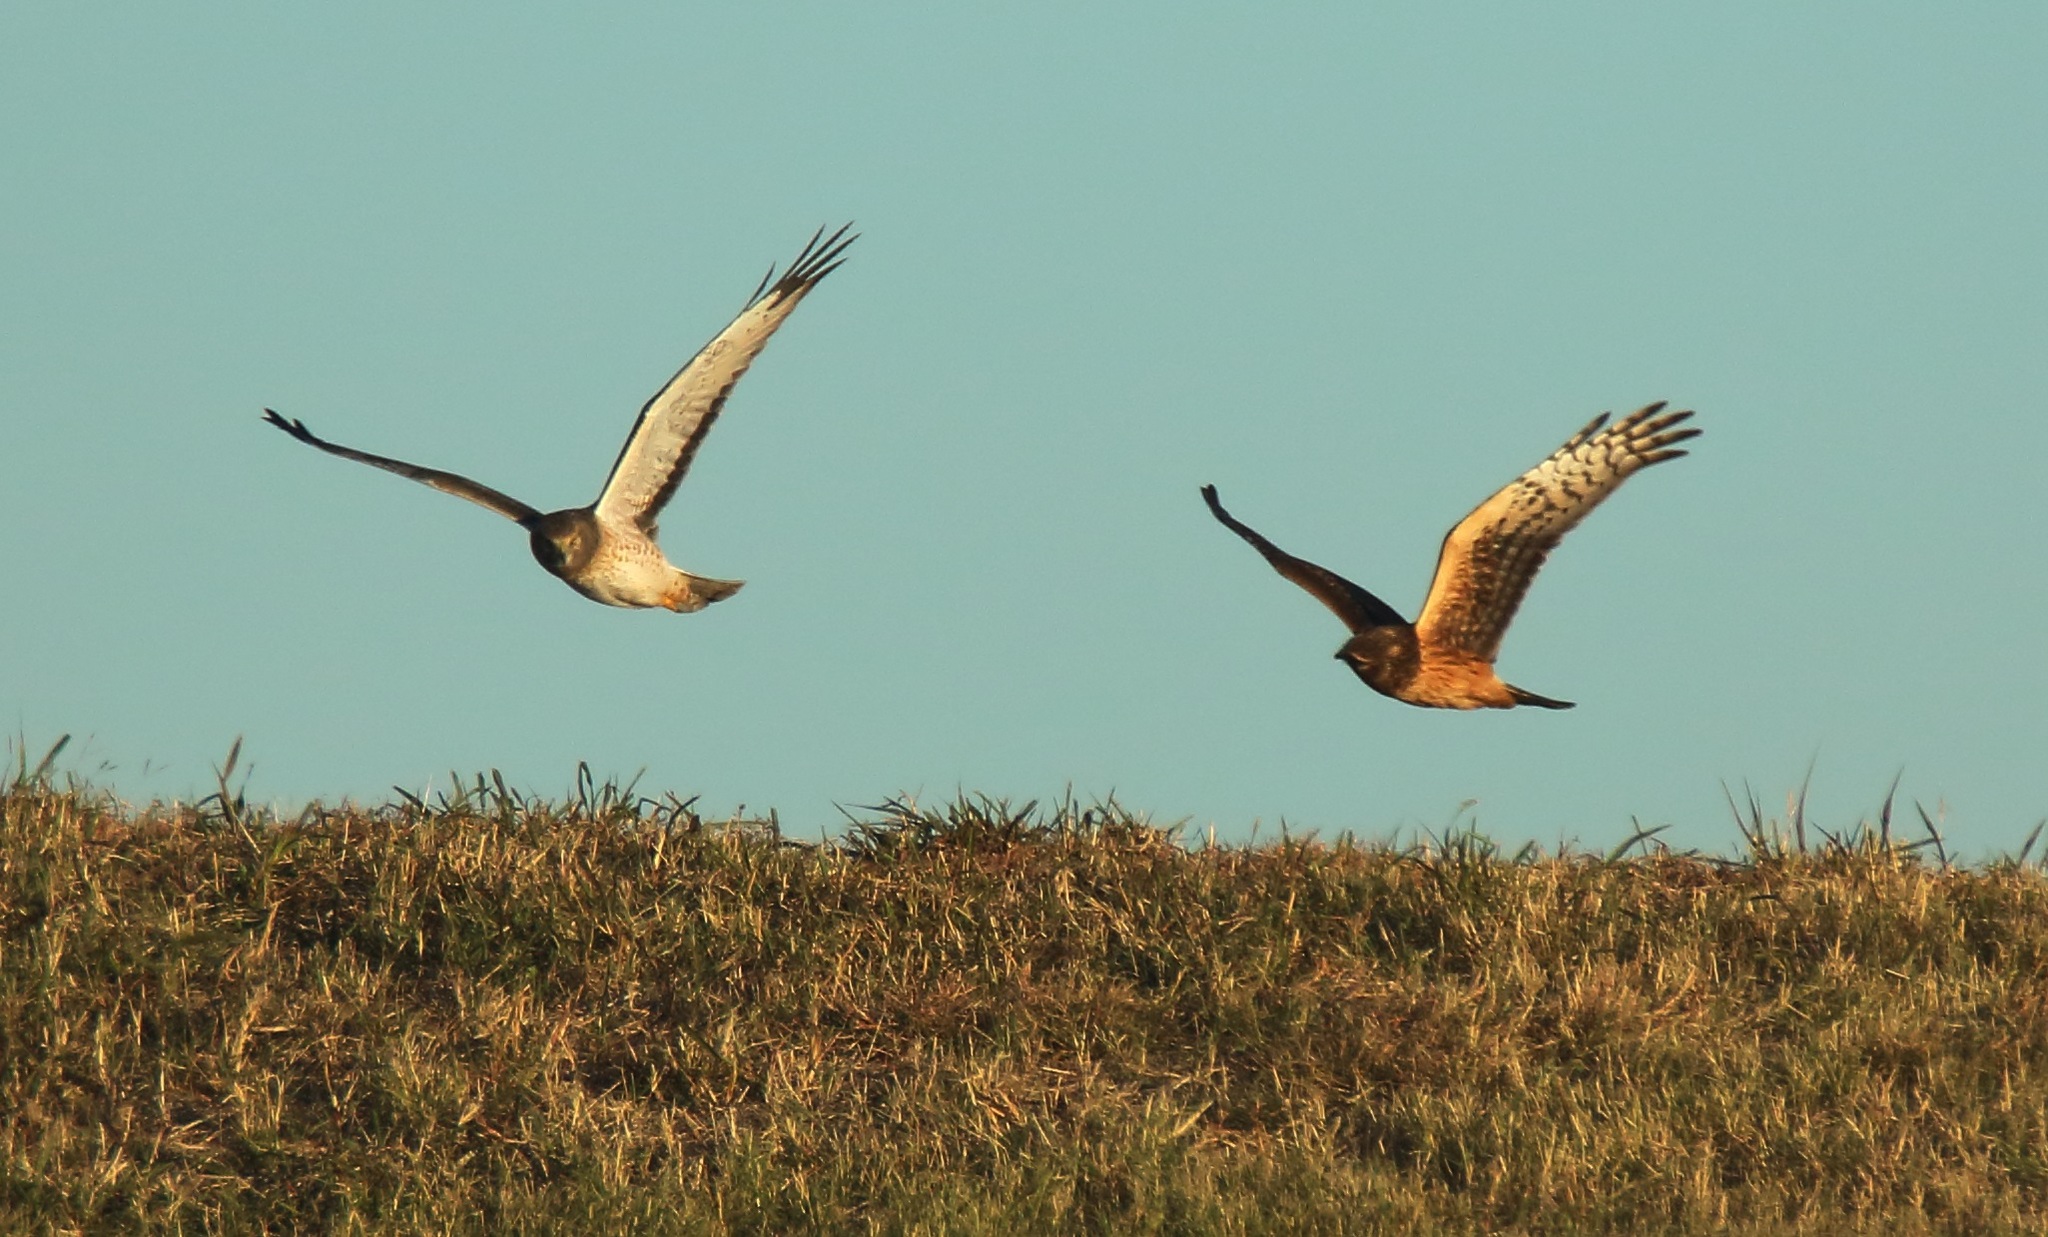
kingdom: Animalia
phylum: Chordata
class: Aves
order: Accipitriformes
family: Accipitridae
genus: Circus
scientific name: Circus cyaneus
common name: Hen harrier
